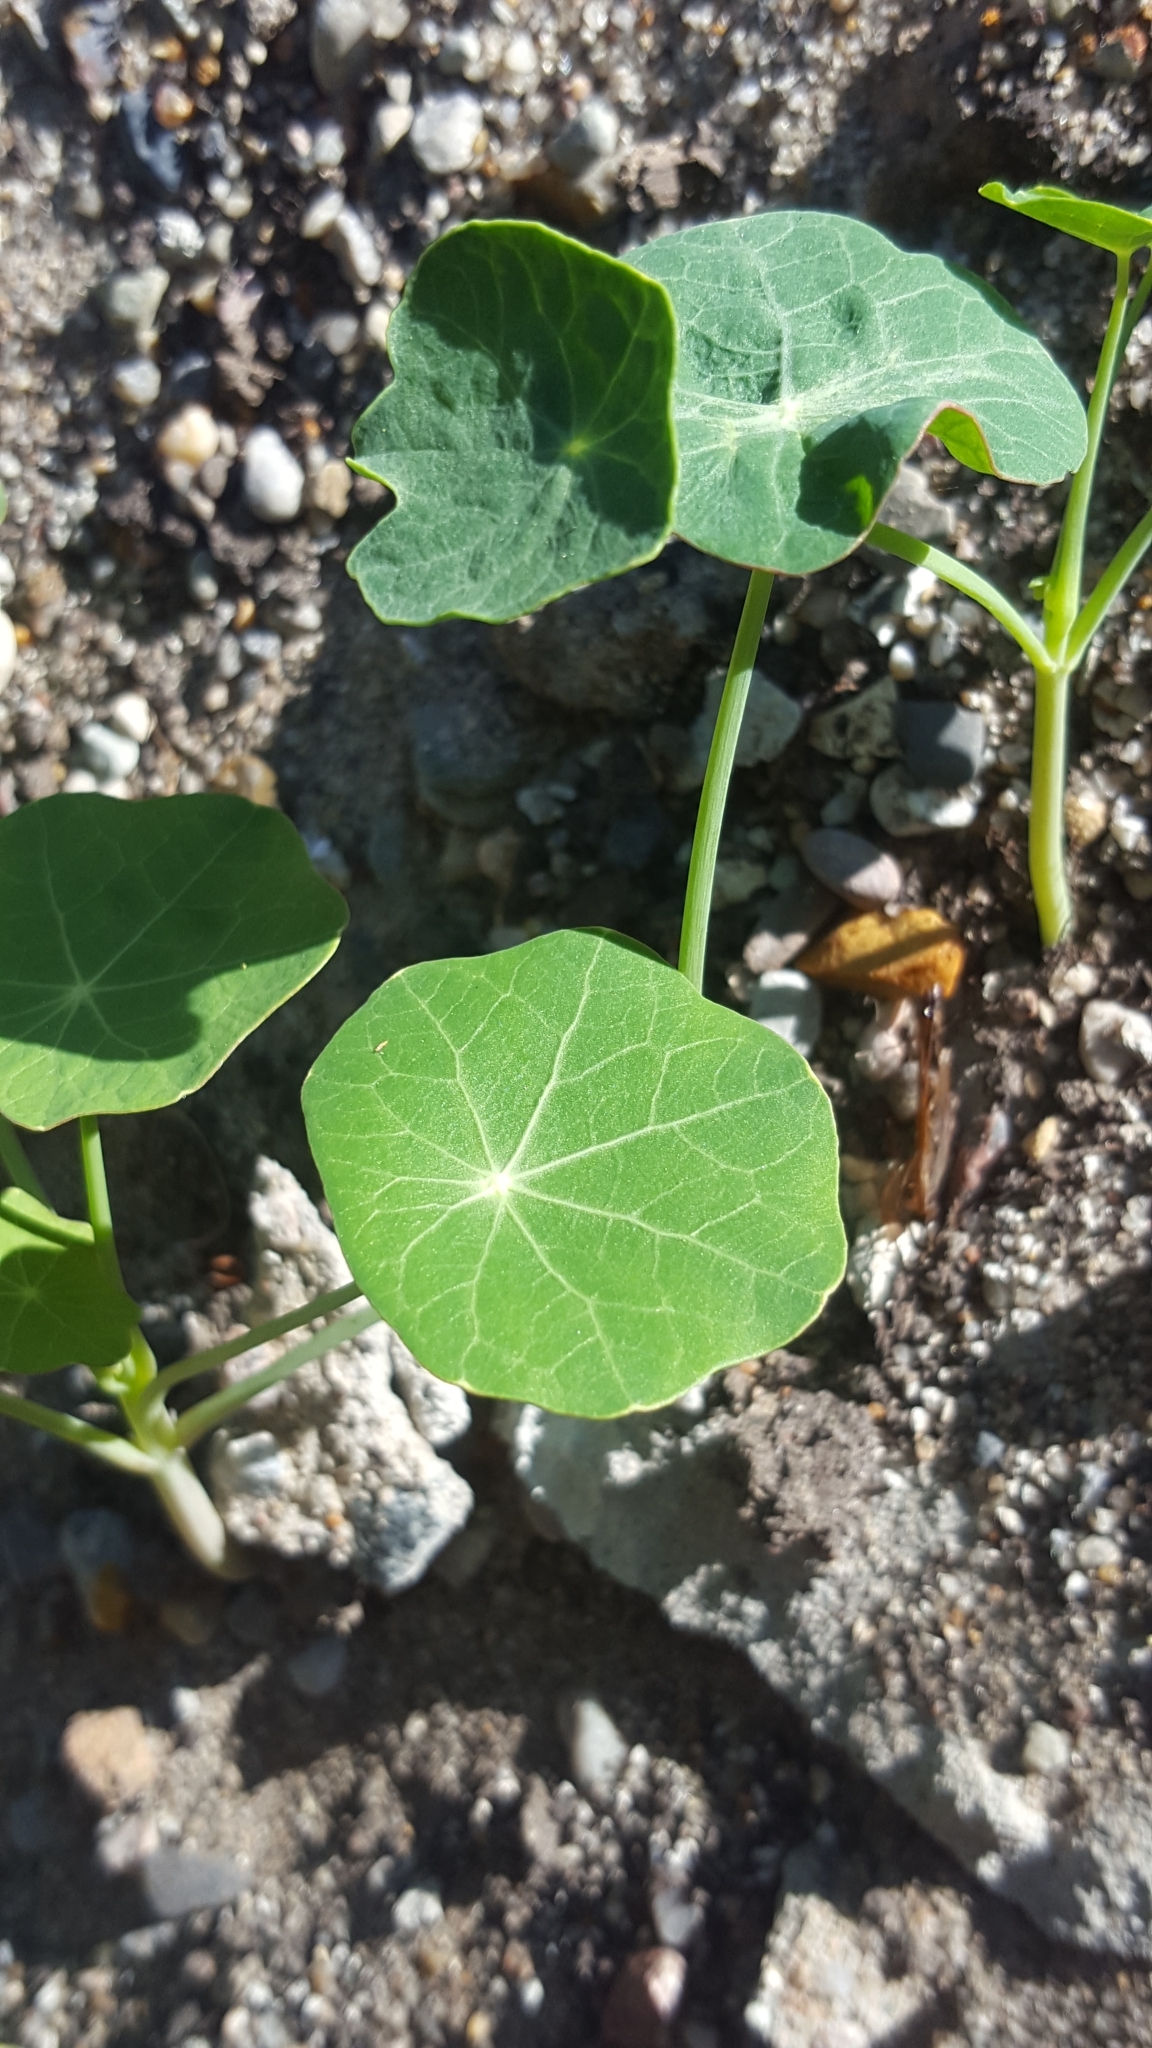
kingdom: Plantae
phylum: Tracheophyta
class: Magnoliopsida
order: Brassicales
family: Tropaeolaceae
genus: Tropaeolum
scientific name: Tropaeolum majus
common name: Nasturtium
